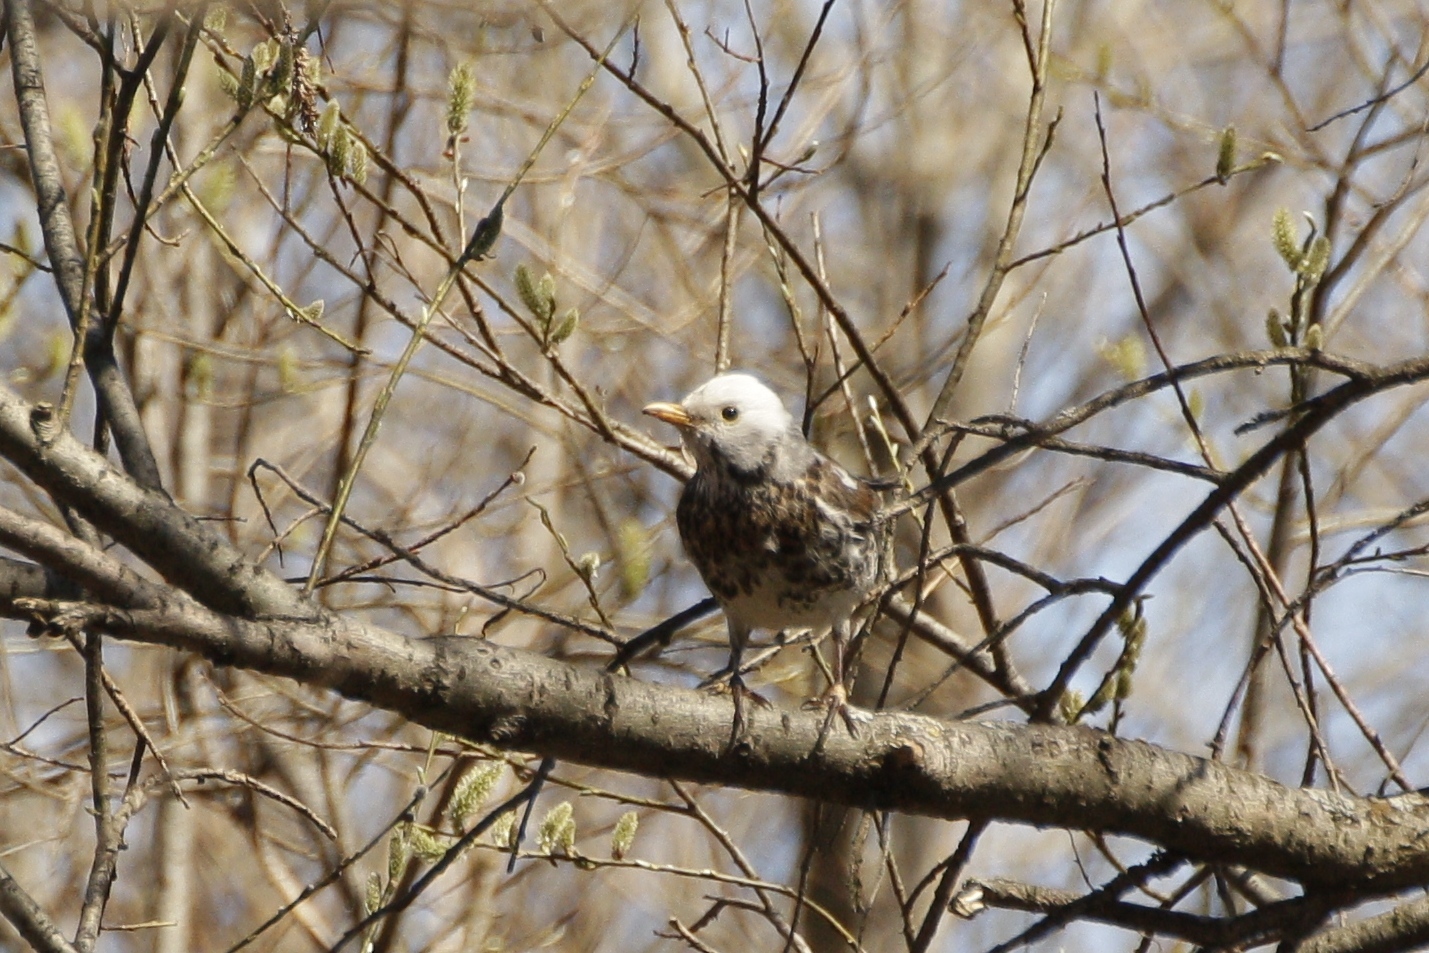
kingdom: Animalia
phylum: Chordata
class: Aves
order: Passeriformes
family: Turdidae
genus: Turdus
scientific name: Turdus pilaris
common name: Fieldfare
